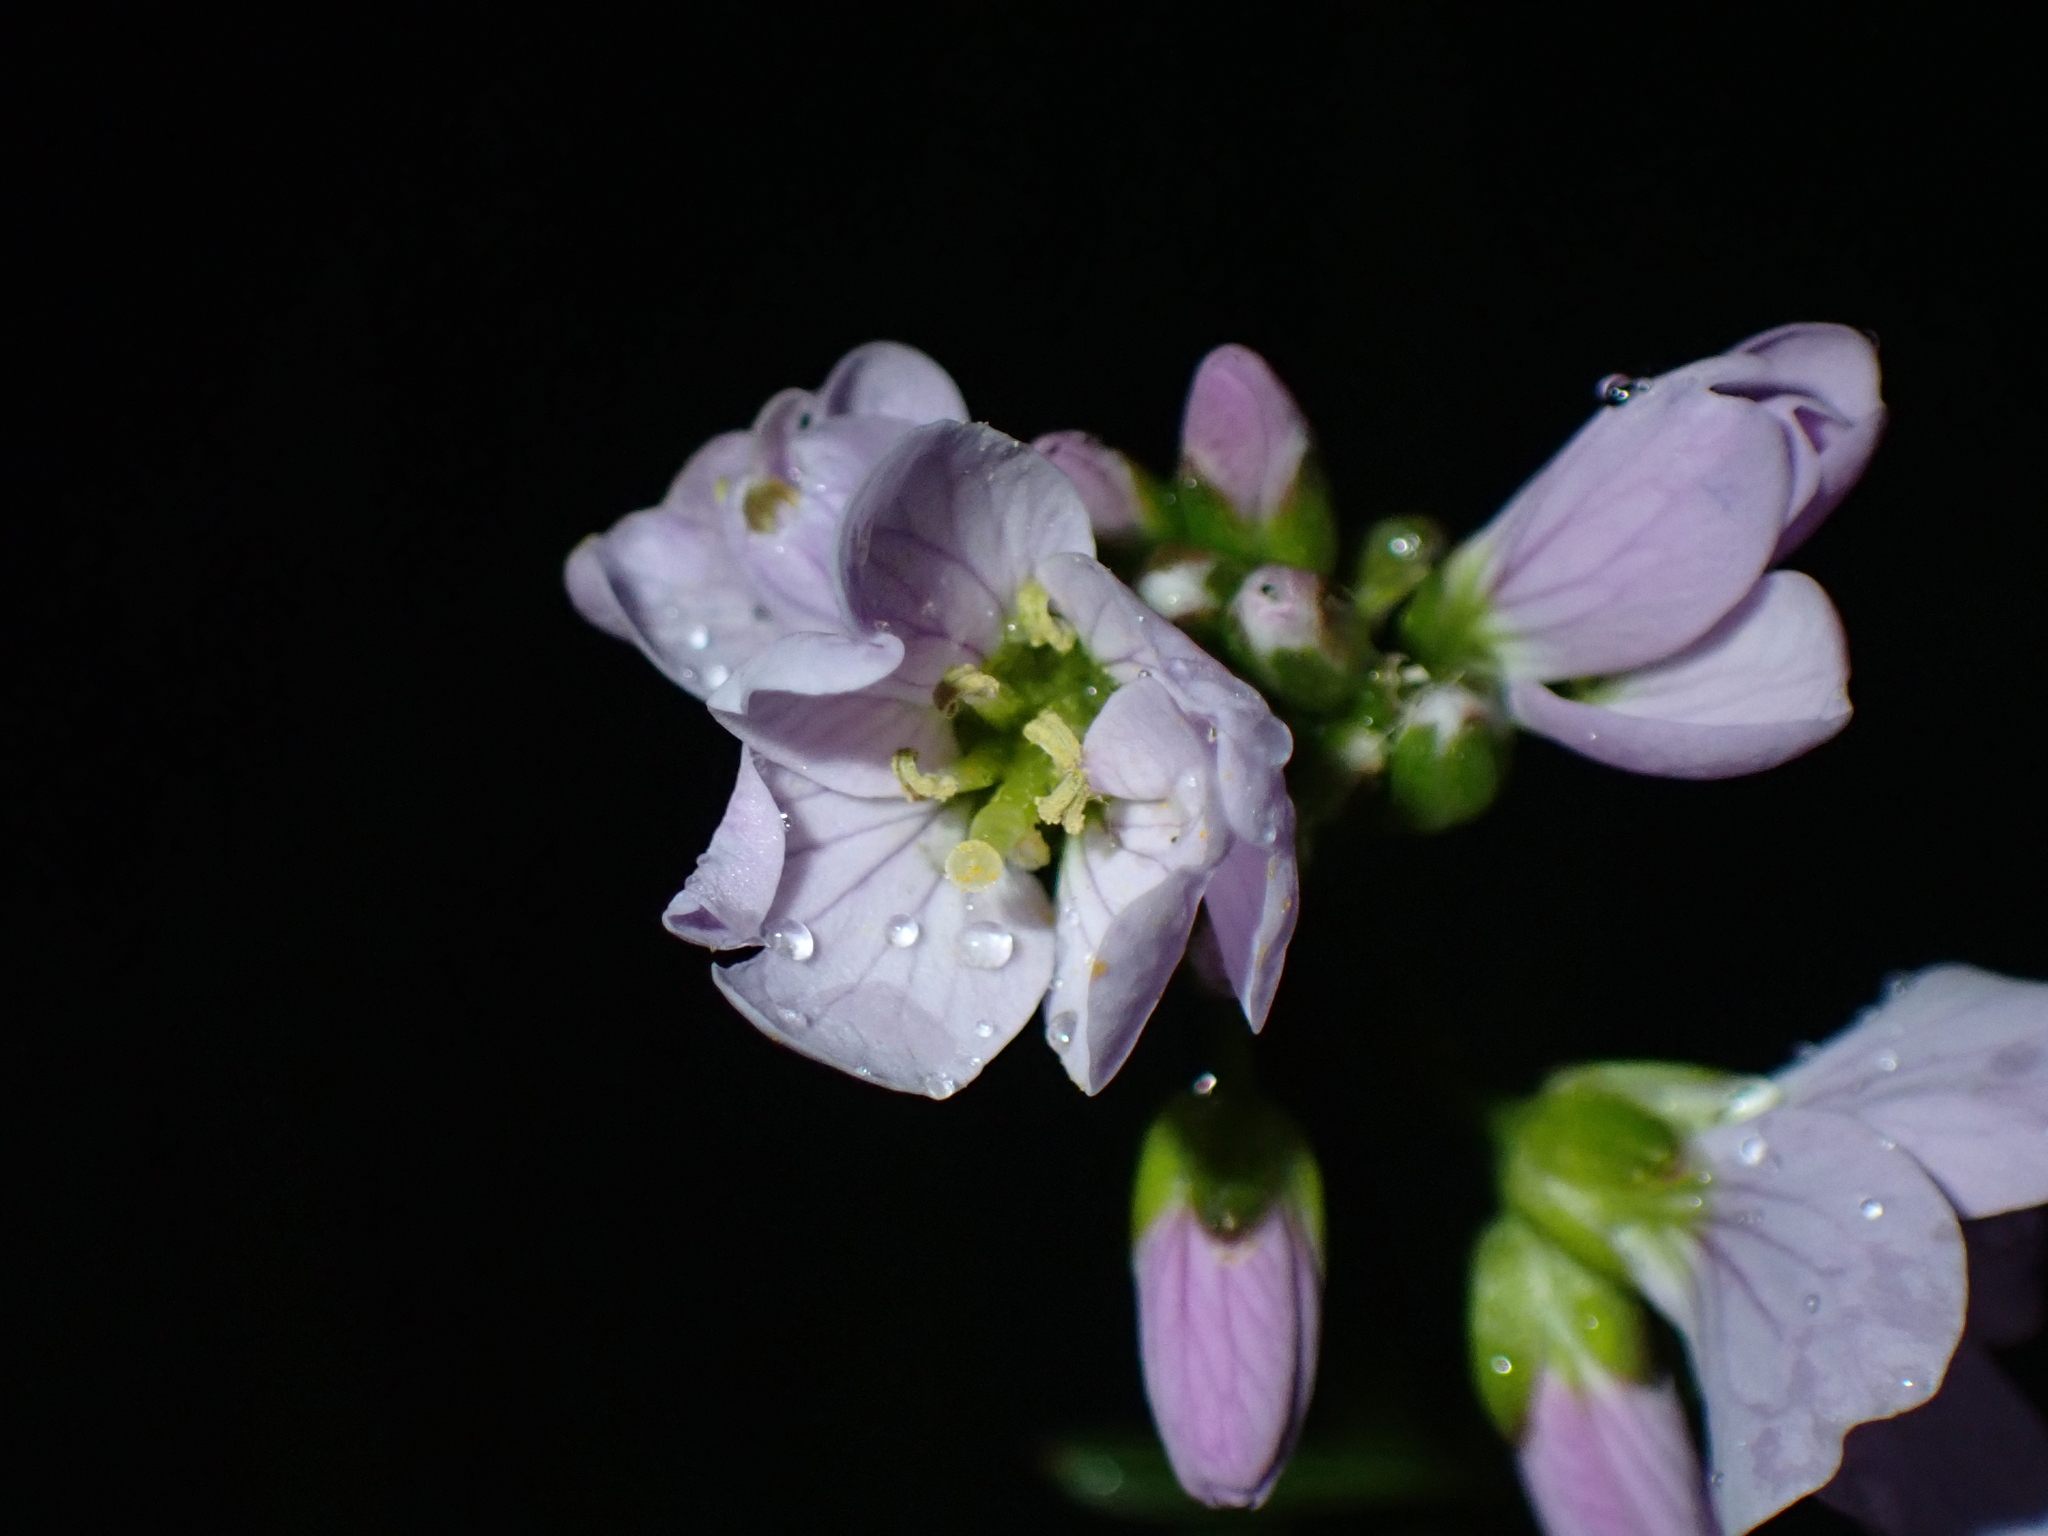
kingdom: Plantae
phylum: Tracheophyta
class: Magnoliopsida
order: Brassicales
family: Brassicaceae
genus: Cardamine
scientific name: Cardamine pratensis
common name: Cuckoo flower
